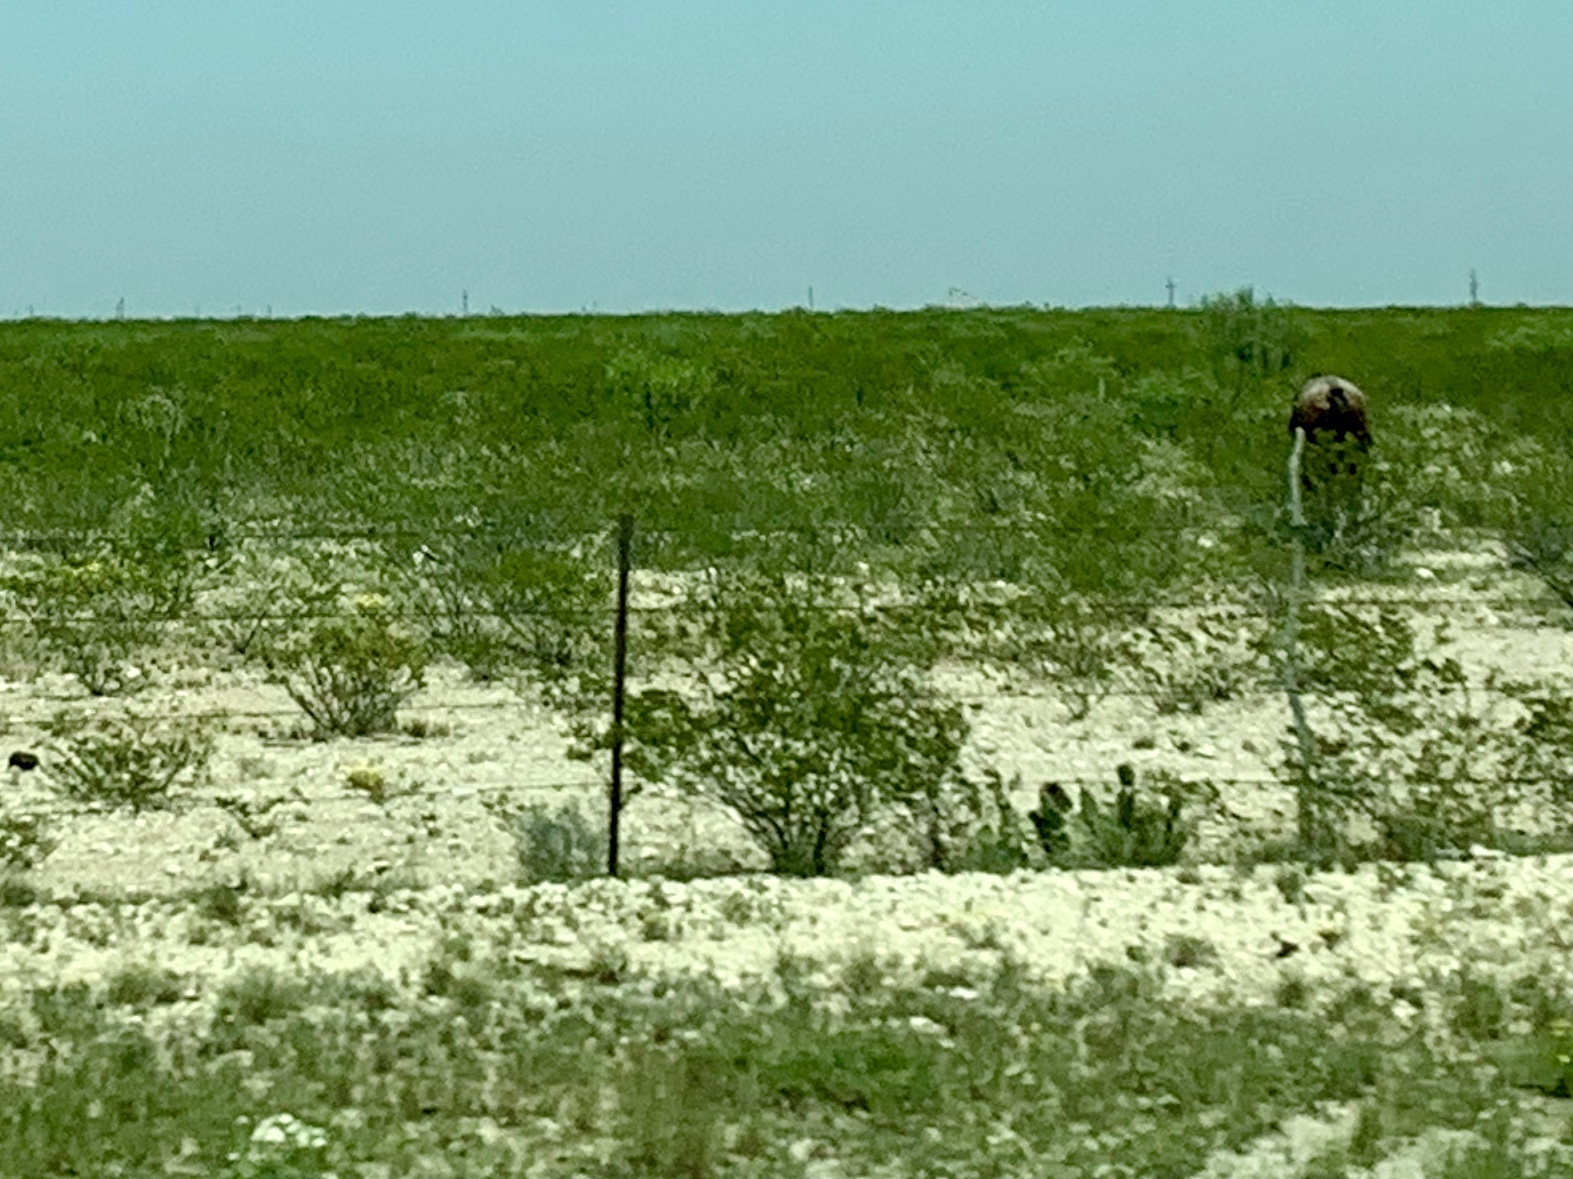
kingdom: Plantae
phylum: Tracheophyta
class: Magnoliopsida
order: Zygophyllales
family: Zygophyllaceae
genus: Larrea
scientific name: Larrea tridentata
